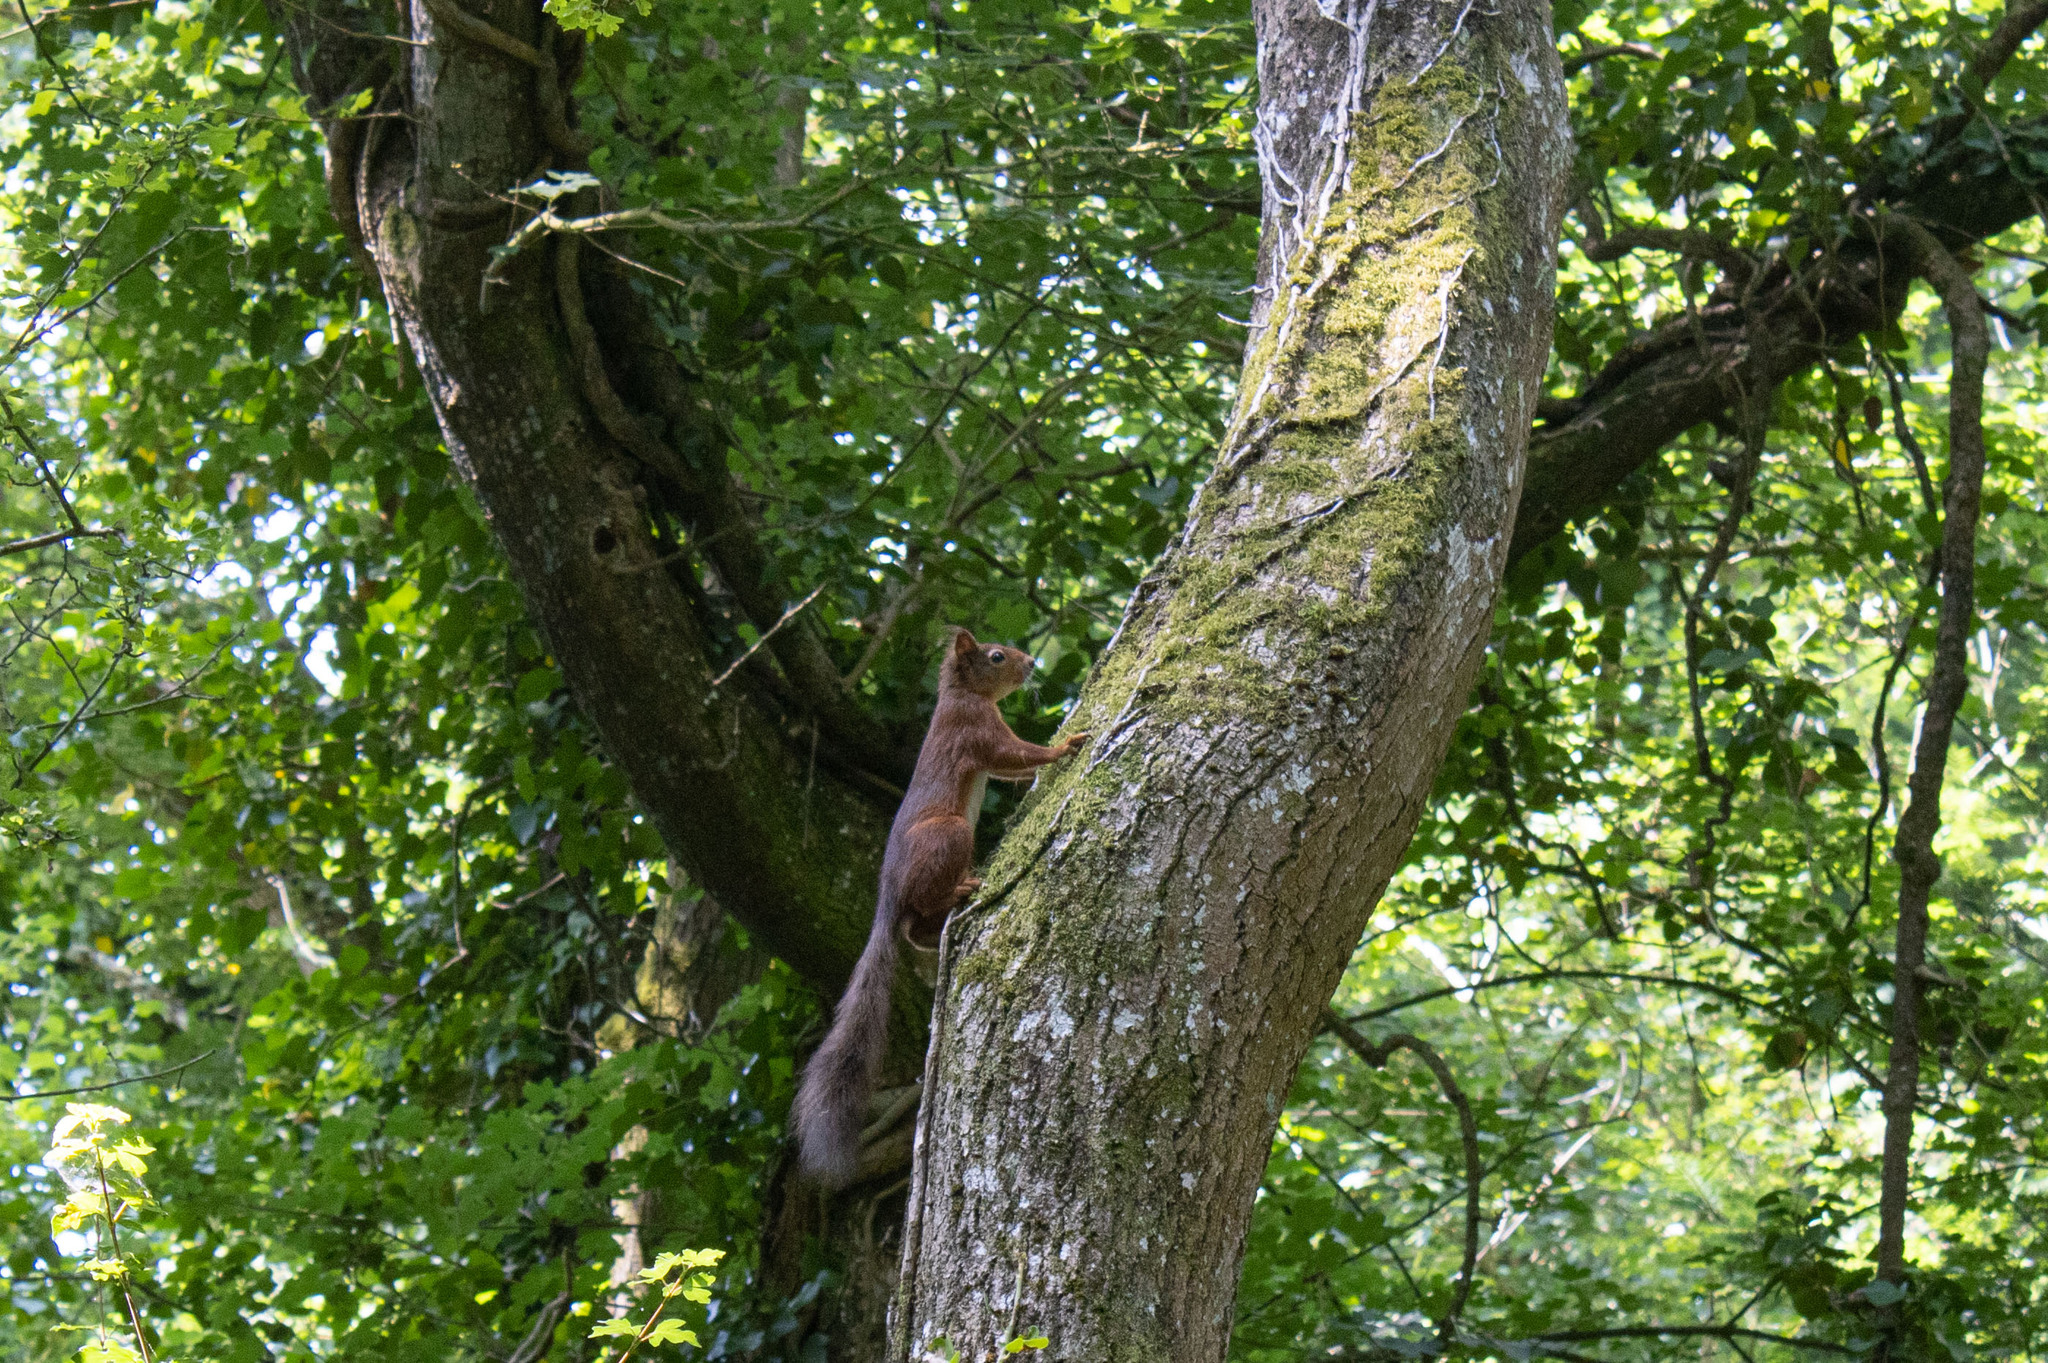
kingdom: Animalia
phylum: Chordata
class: Mammalia
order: Rodentia
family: Sciuridae
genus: Sciurus
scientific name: Sciurus vulgaris
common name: Eurasian red squirrel
